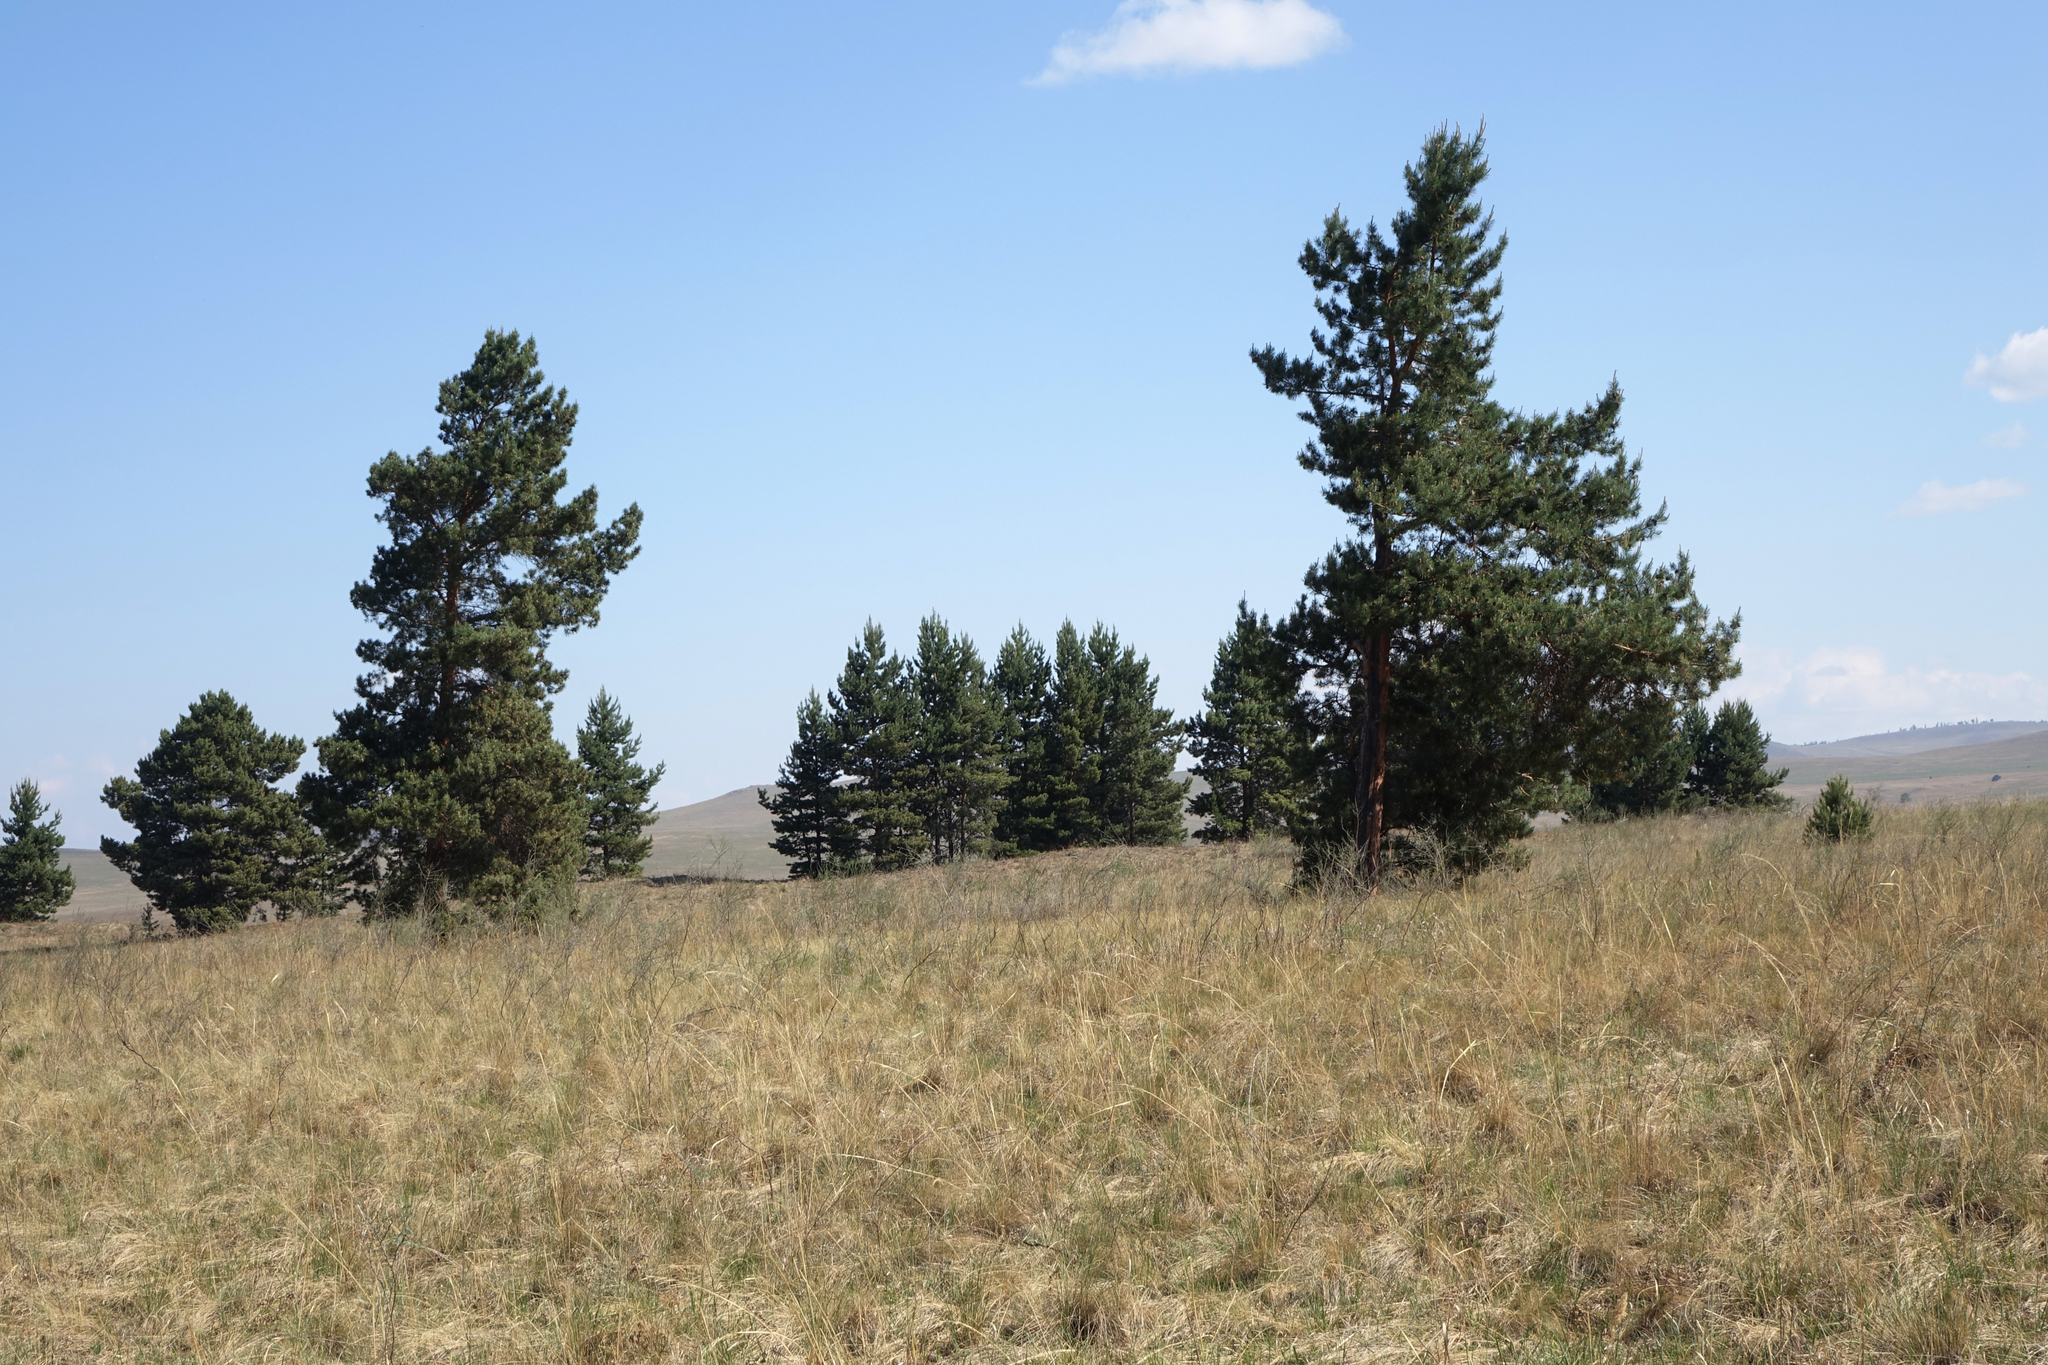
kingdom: Plantae
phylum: Tracheophyta
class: Pinopsida
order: Pinales
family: Pinaceae
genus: Pinus
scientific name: Pinus sylvestris
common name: Scots pine
